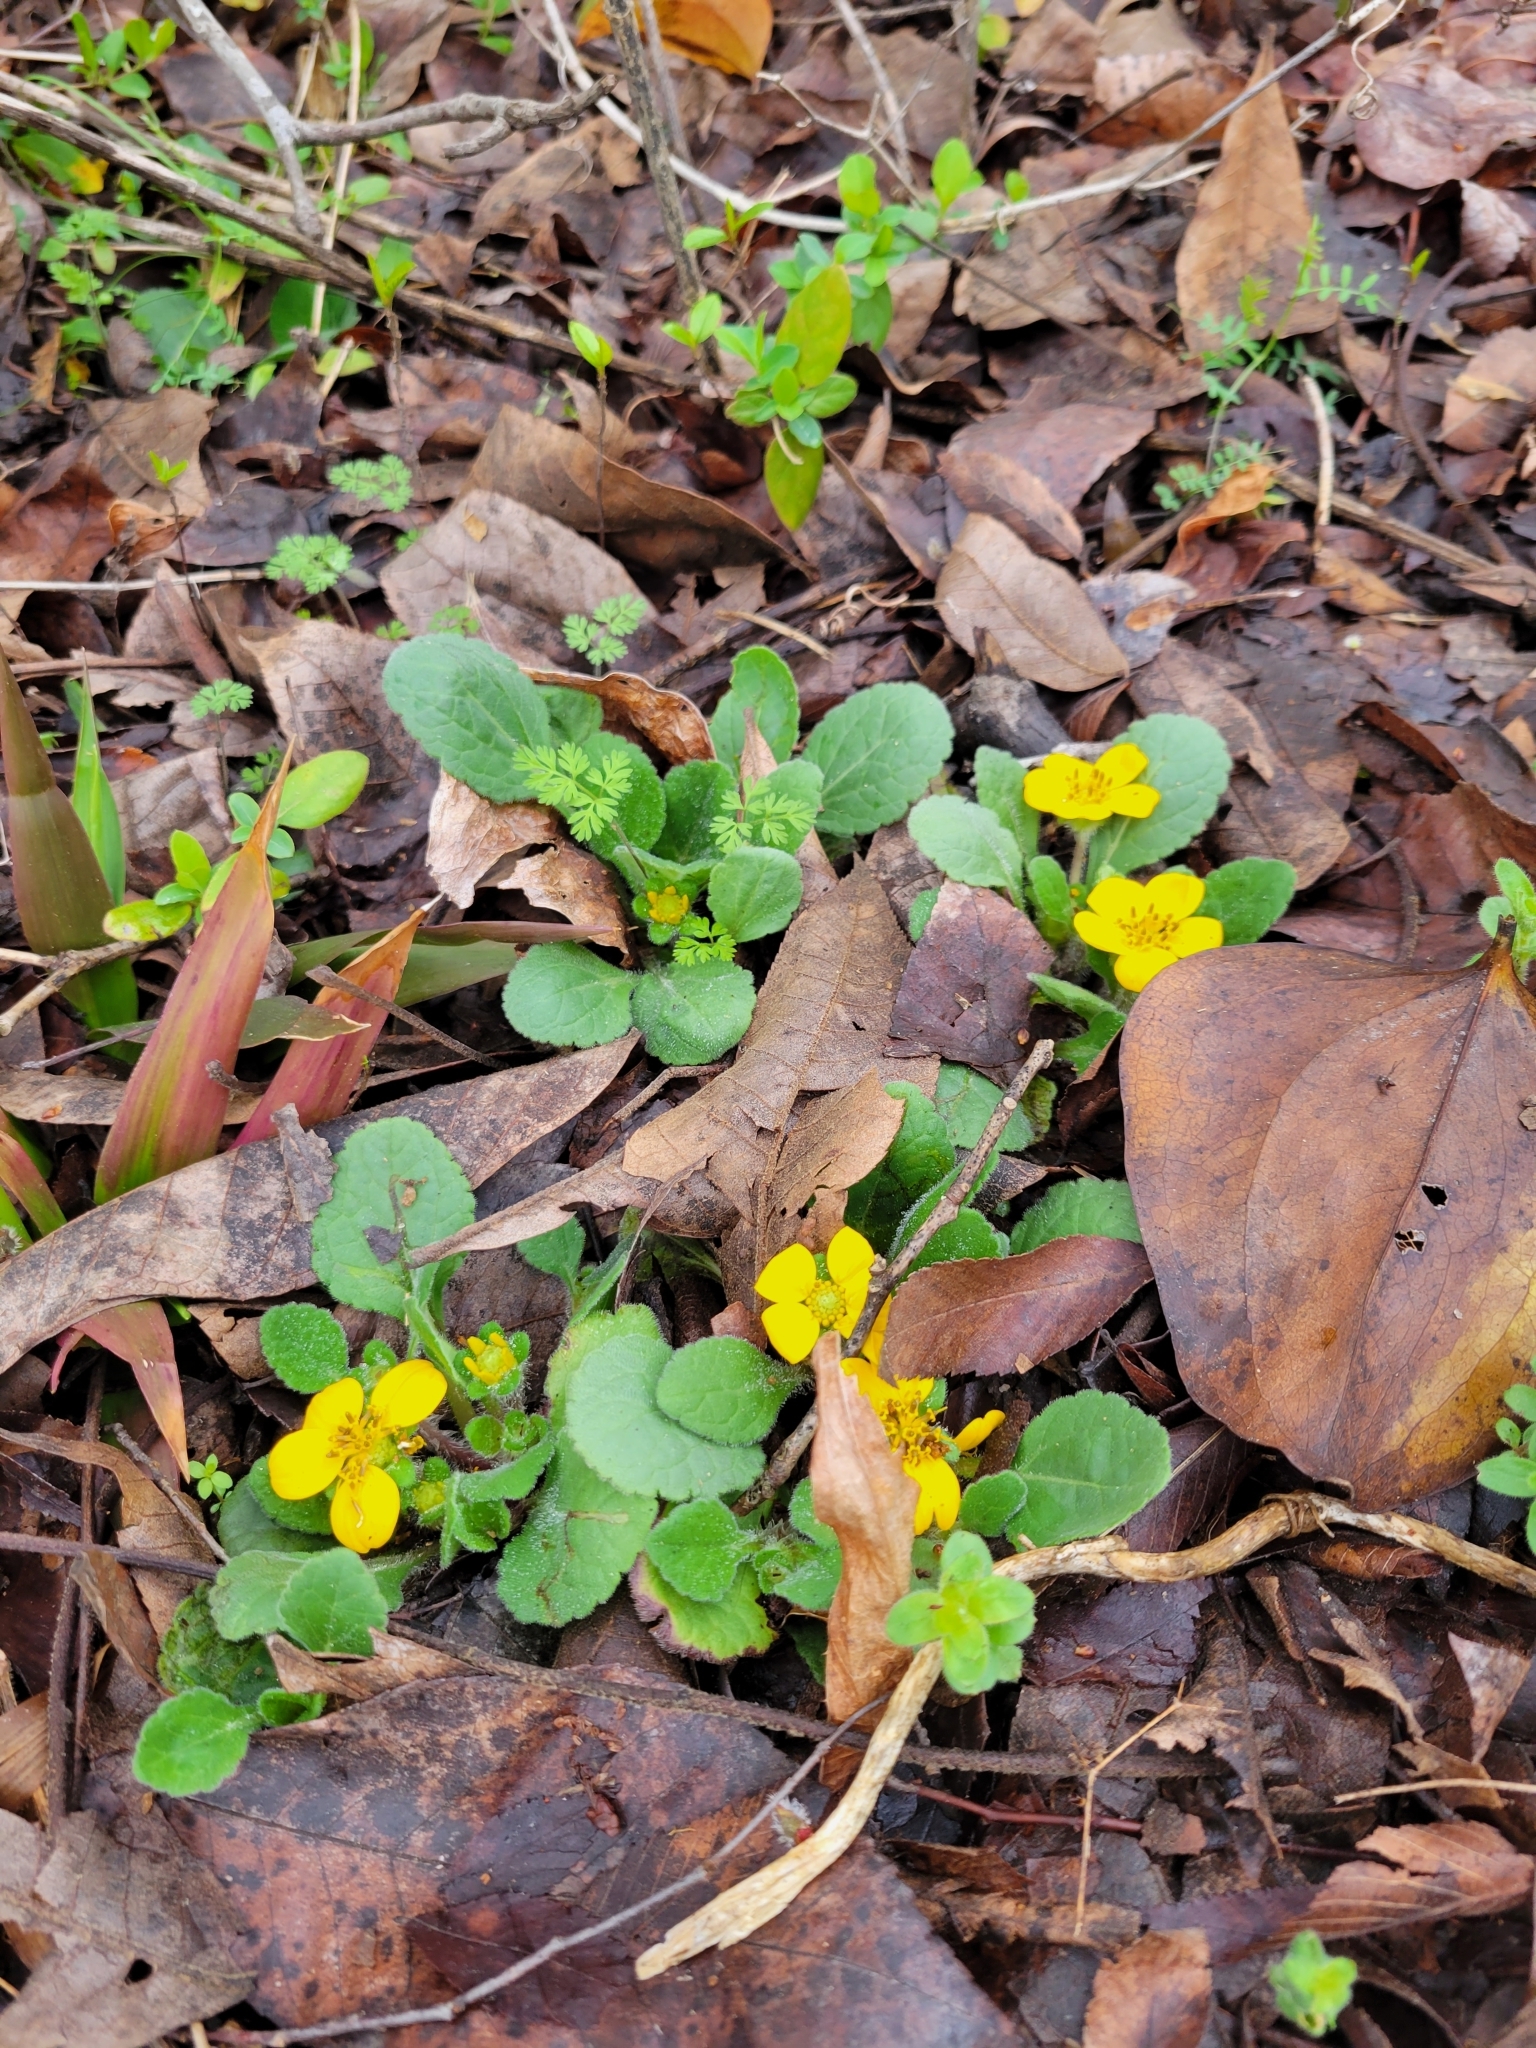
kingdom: Plantae
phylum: Tracheophyta
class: Magnoliopsida
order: Asterales
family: Asteraceae
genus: Chrysogonum
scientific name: Chrysogonum virginianum
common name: Golden-knee
